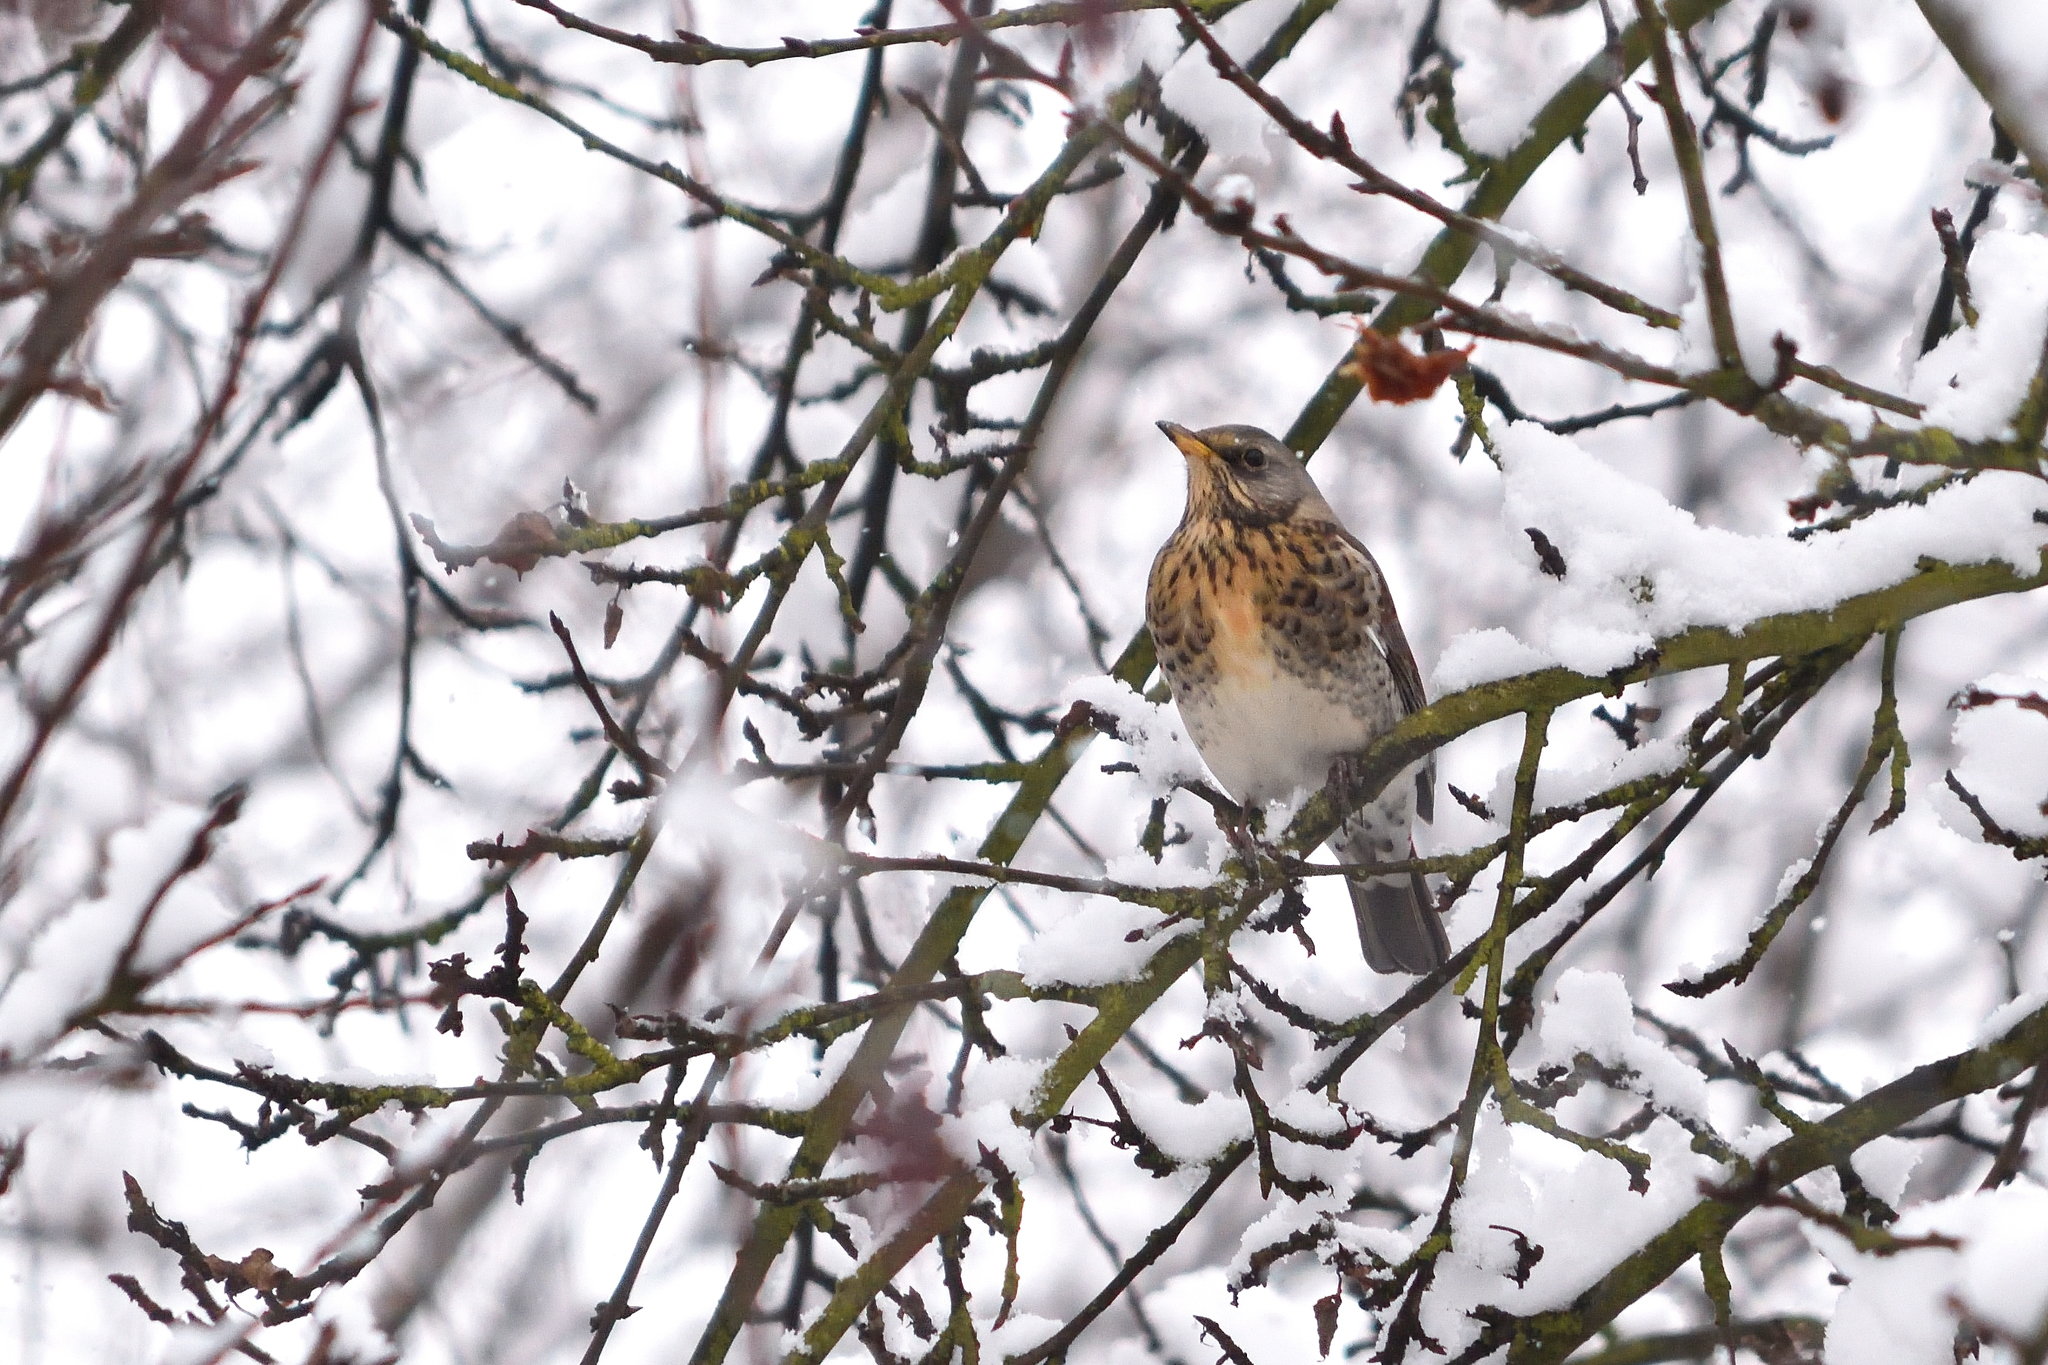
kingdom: Animalia
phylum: Chordata
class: Aves
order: Passeriformes
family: Turdidae
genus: Turdus
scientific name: Turdus pilaris
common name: Fieldfare
